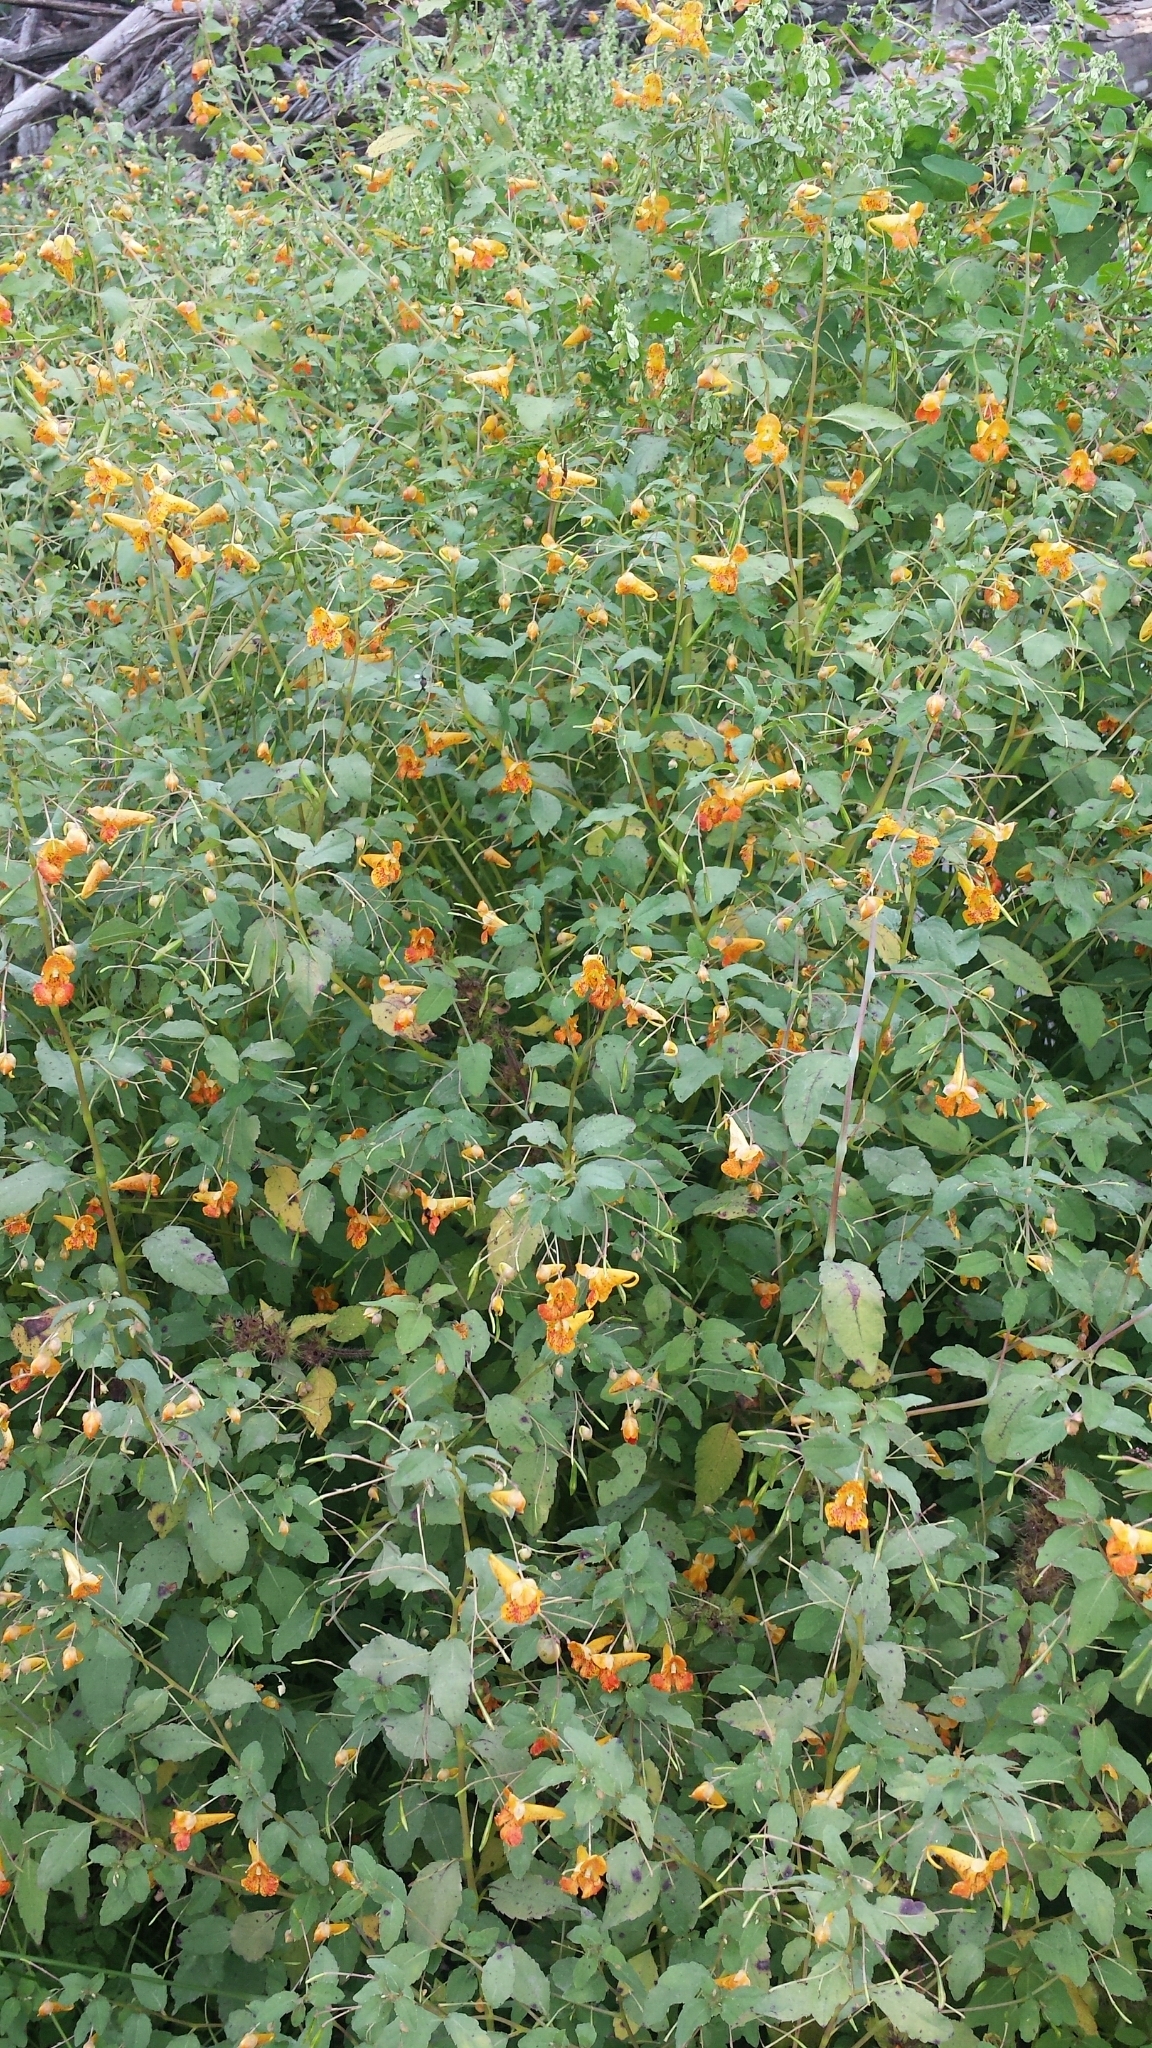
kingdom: Plantae
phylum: Tracheophyta
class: Magnoliopsida
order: Ericales
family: Balsaminaceae
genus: Impatiens
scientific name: Impatiens capensis
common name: Orange balsam
